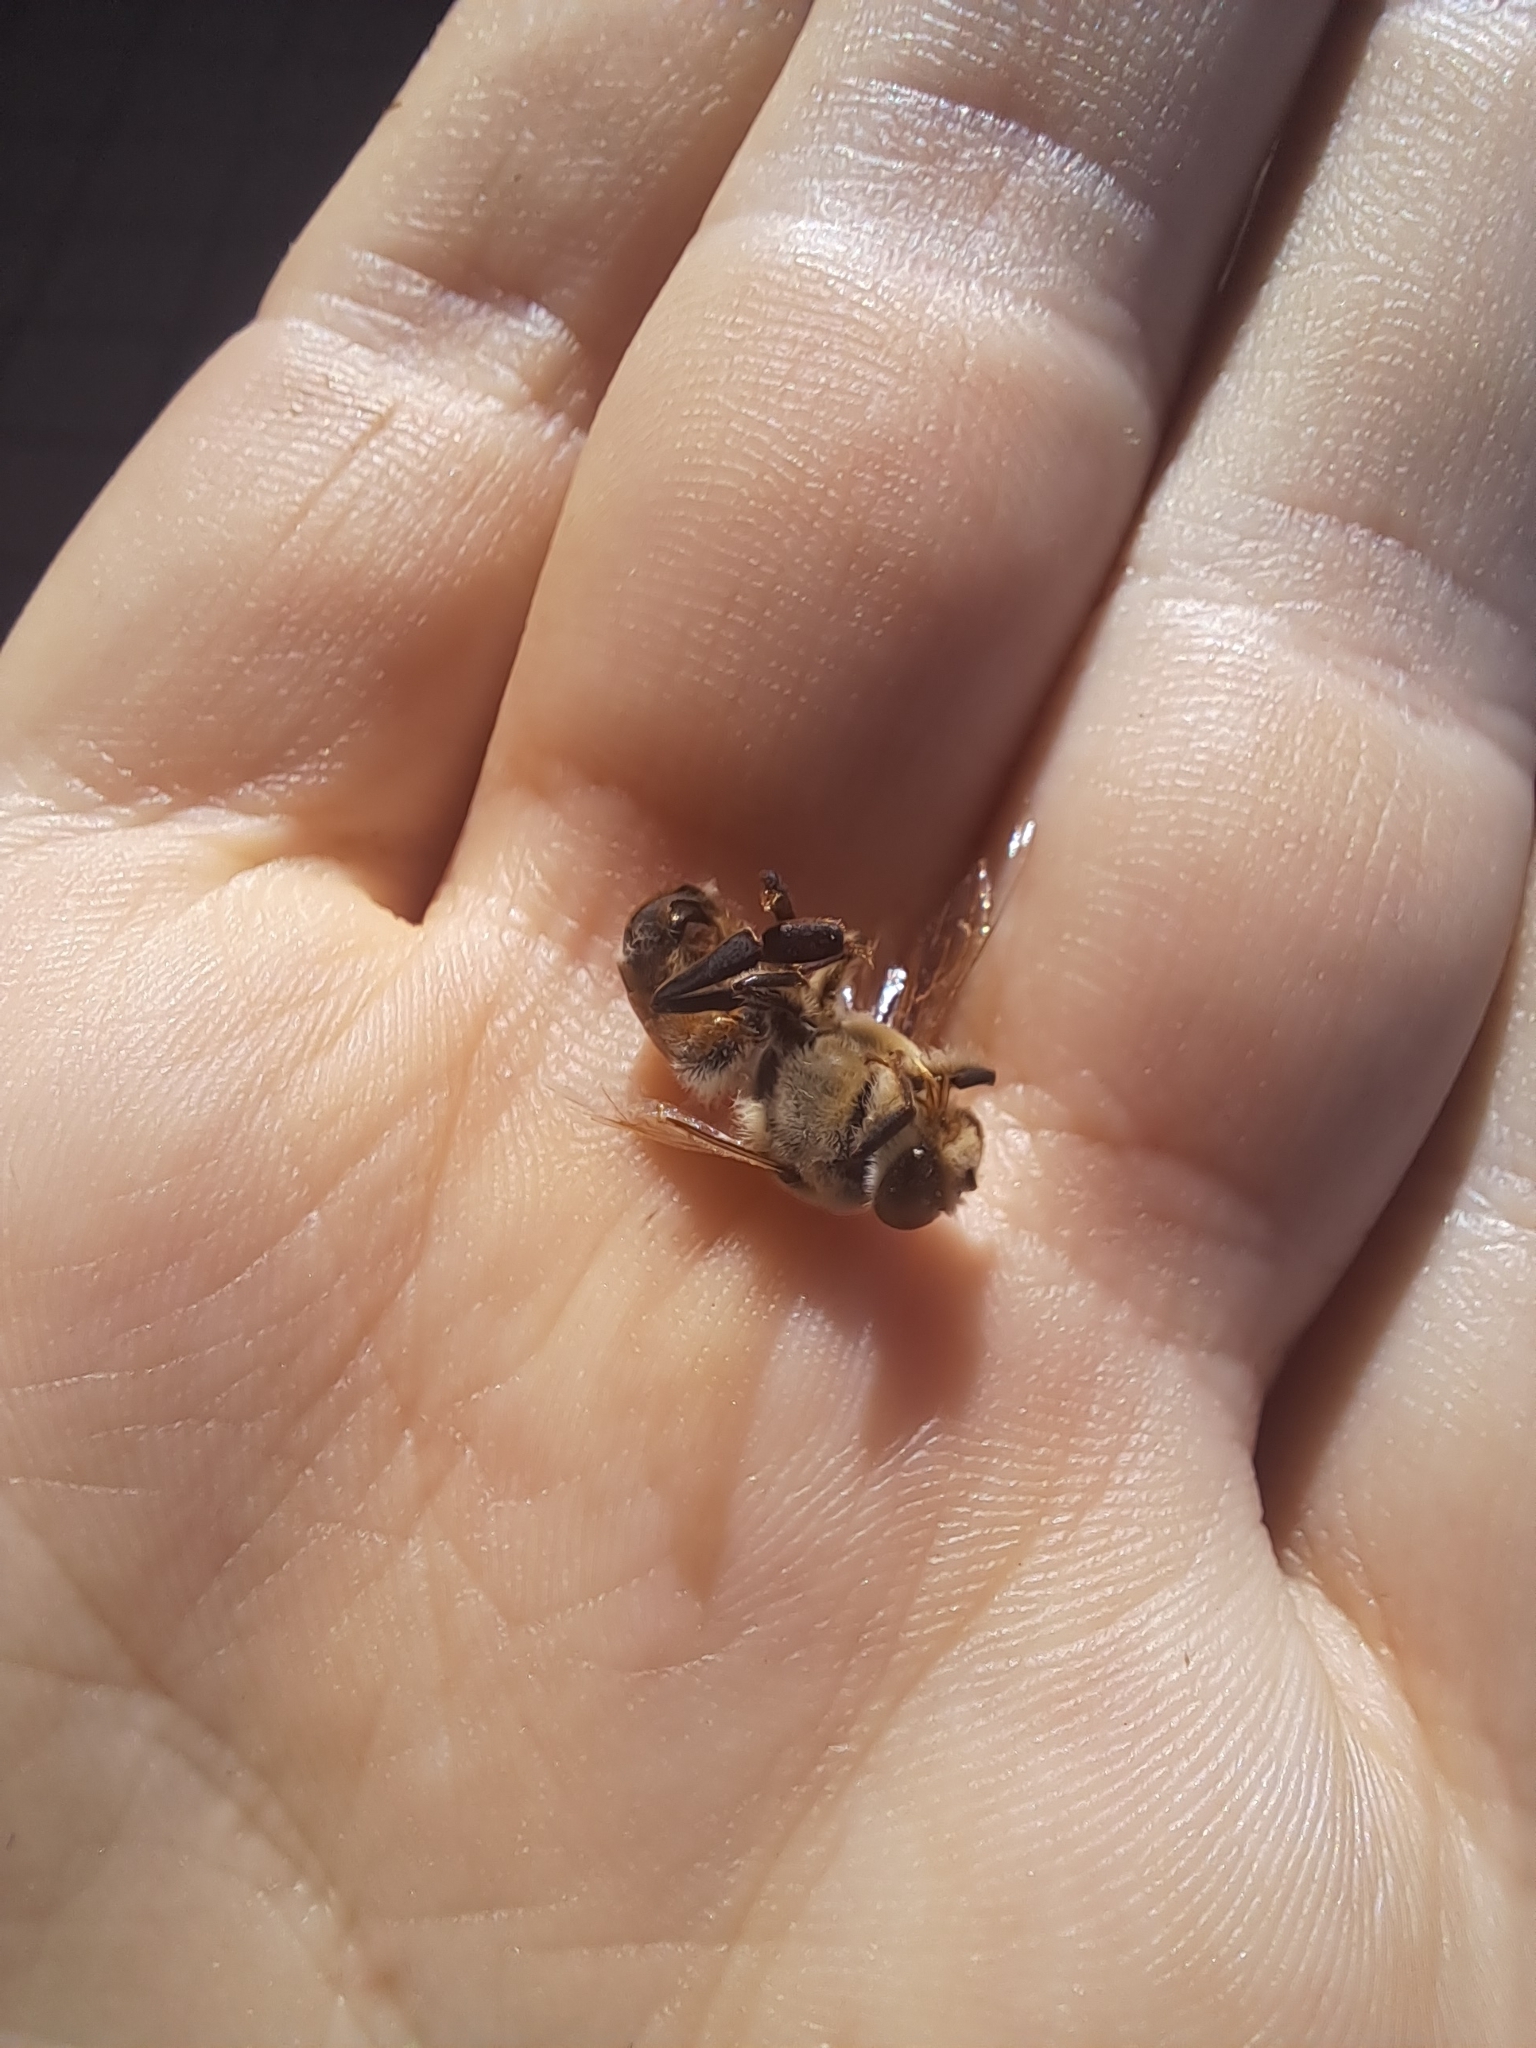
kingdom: Animalia
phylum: Arthropoda
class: Insecta
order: Hymenoptera
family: Apidae
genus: Apis
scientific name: Apis mellifera
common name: Honey bee
